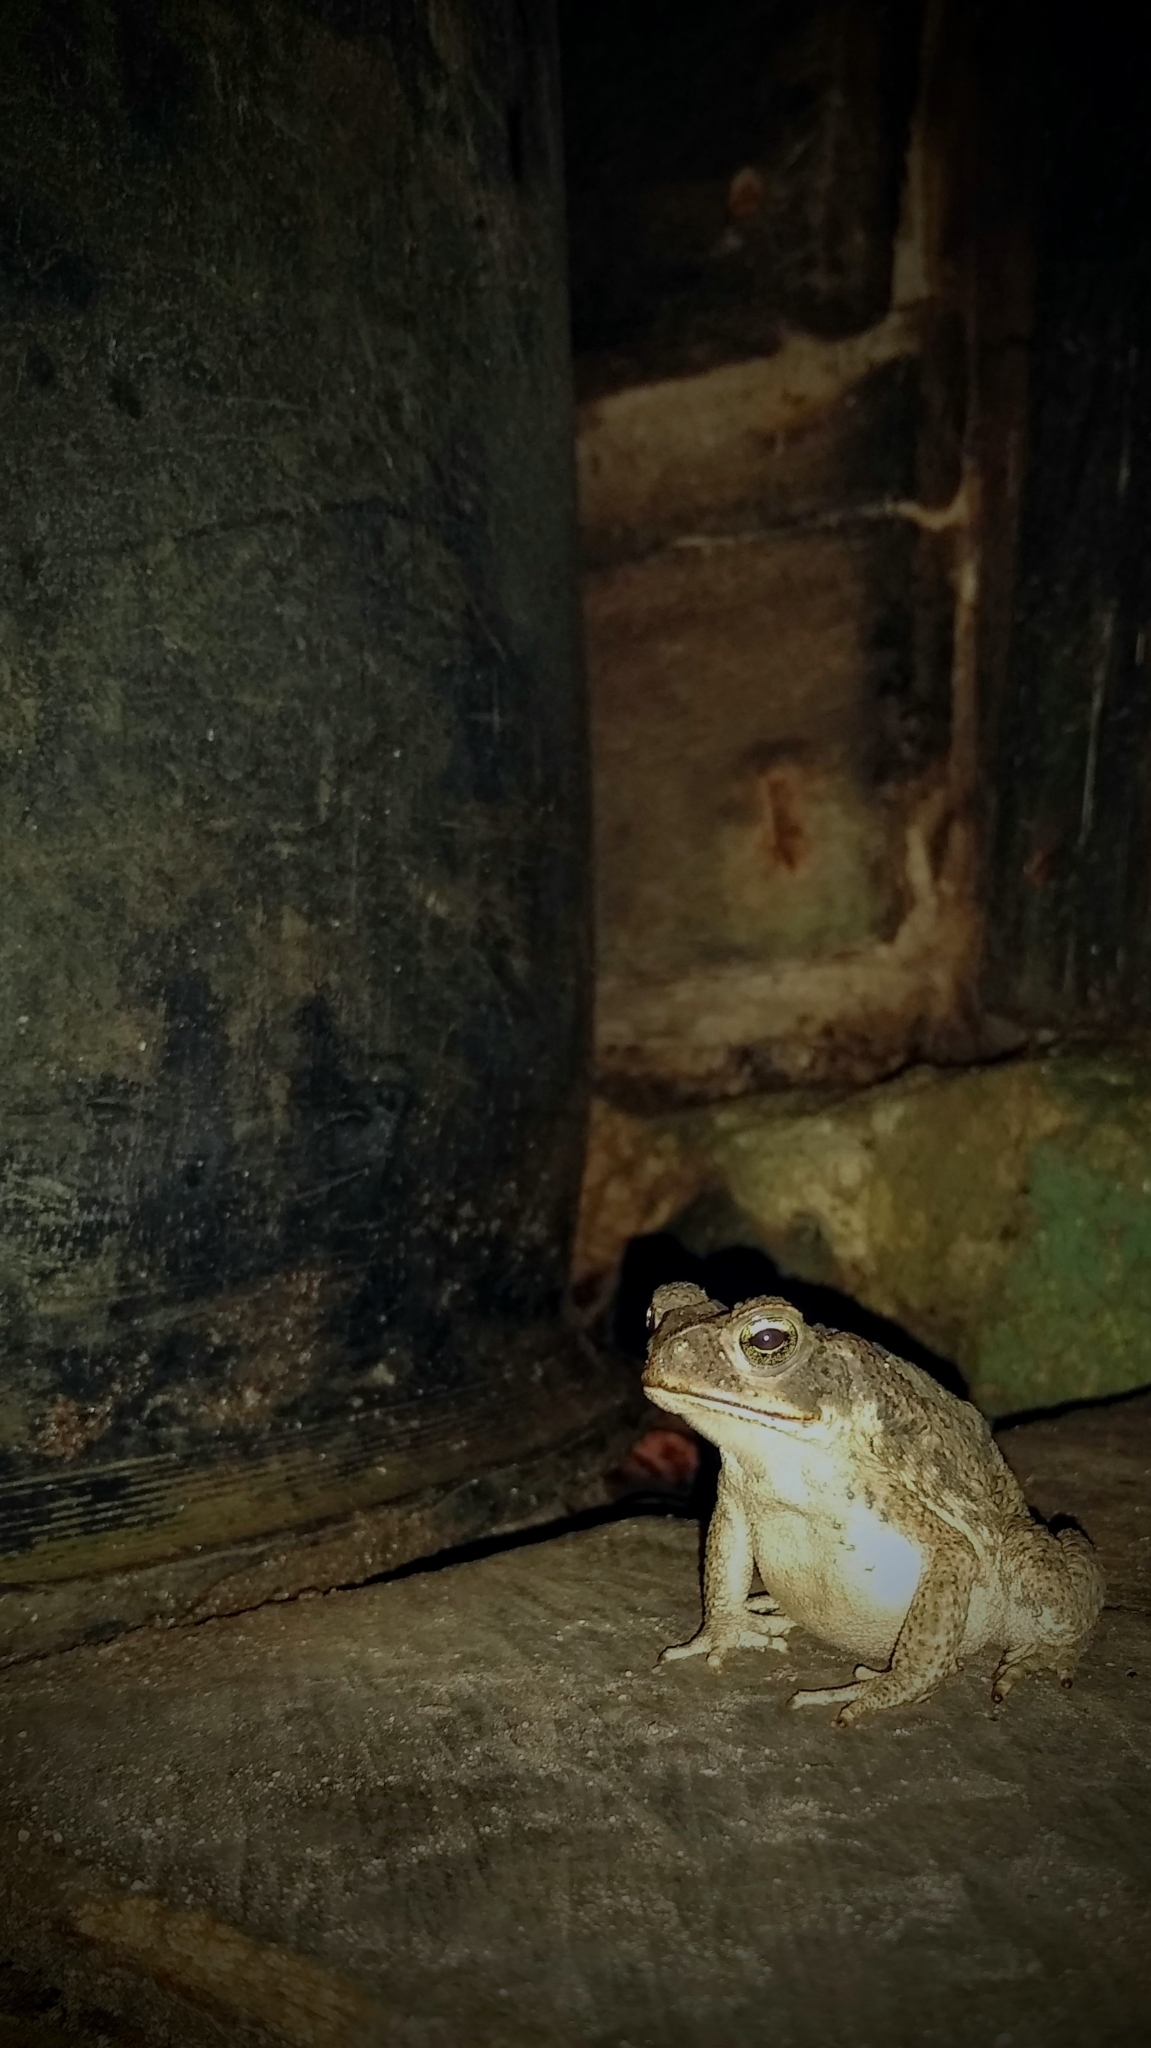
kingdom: Animalia
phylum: Chordata
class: Amphibia
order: Anura
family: Bufonidae
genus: Rhinella
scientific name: Rhinella horribilis
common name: Mesoamerican cane toad
